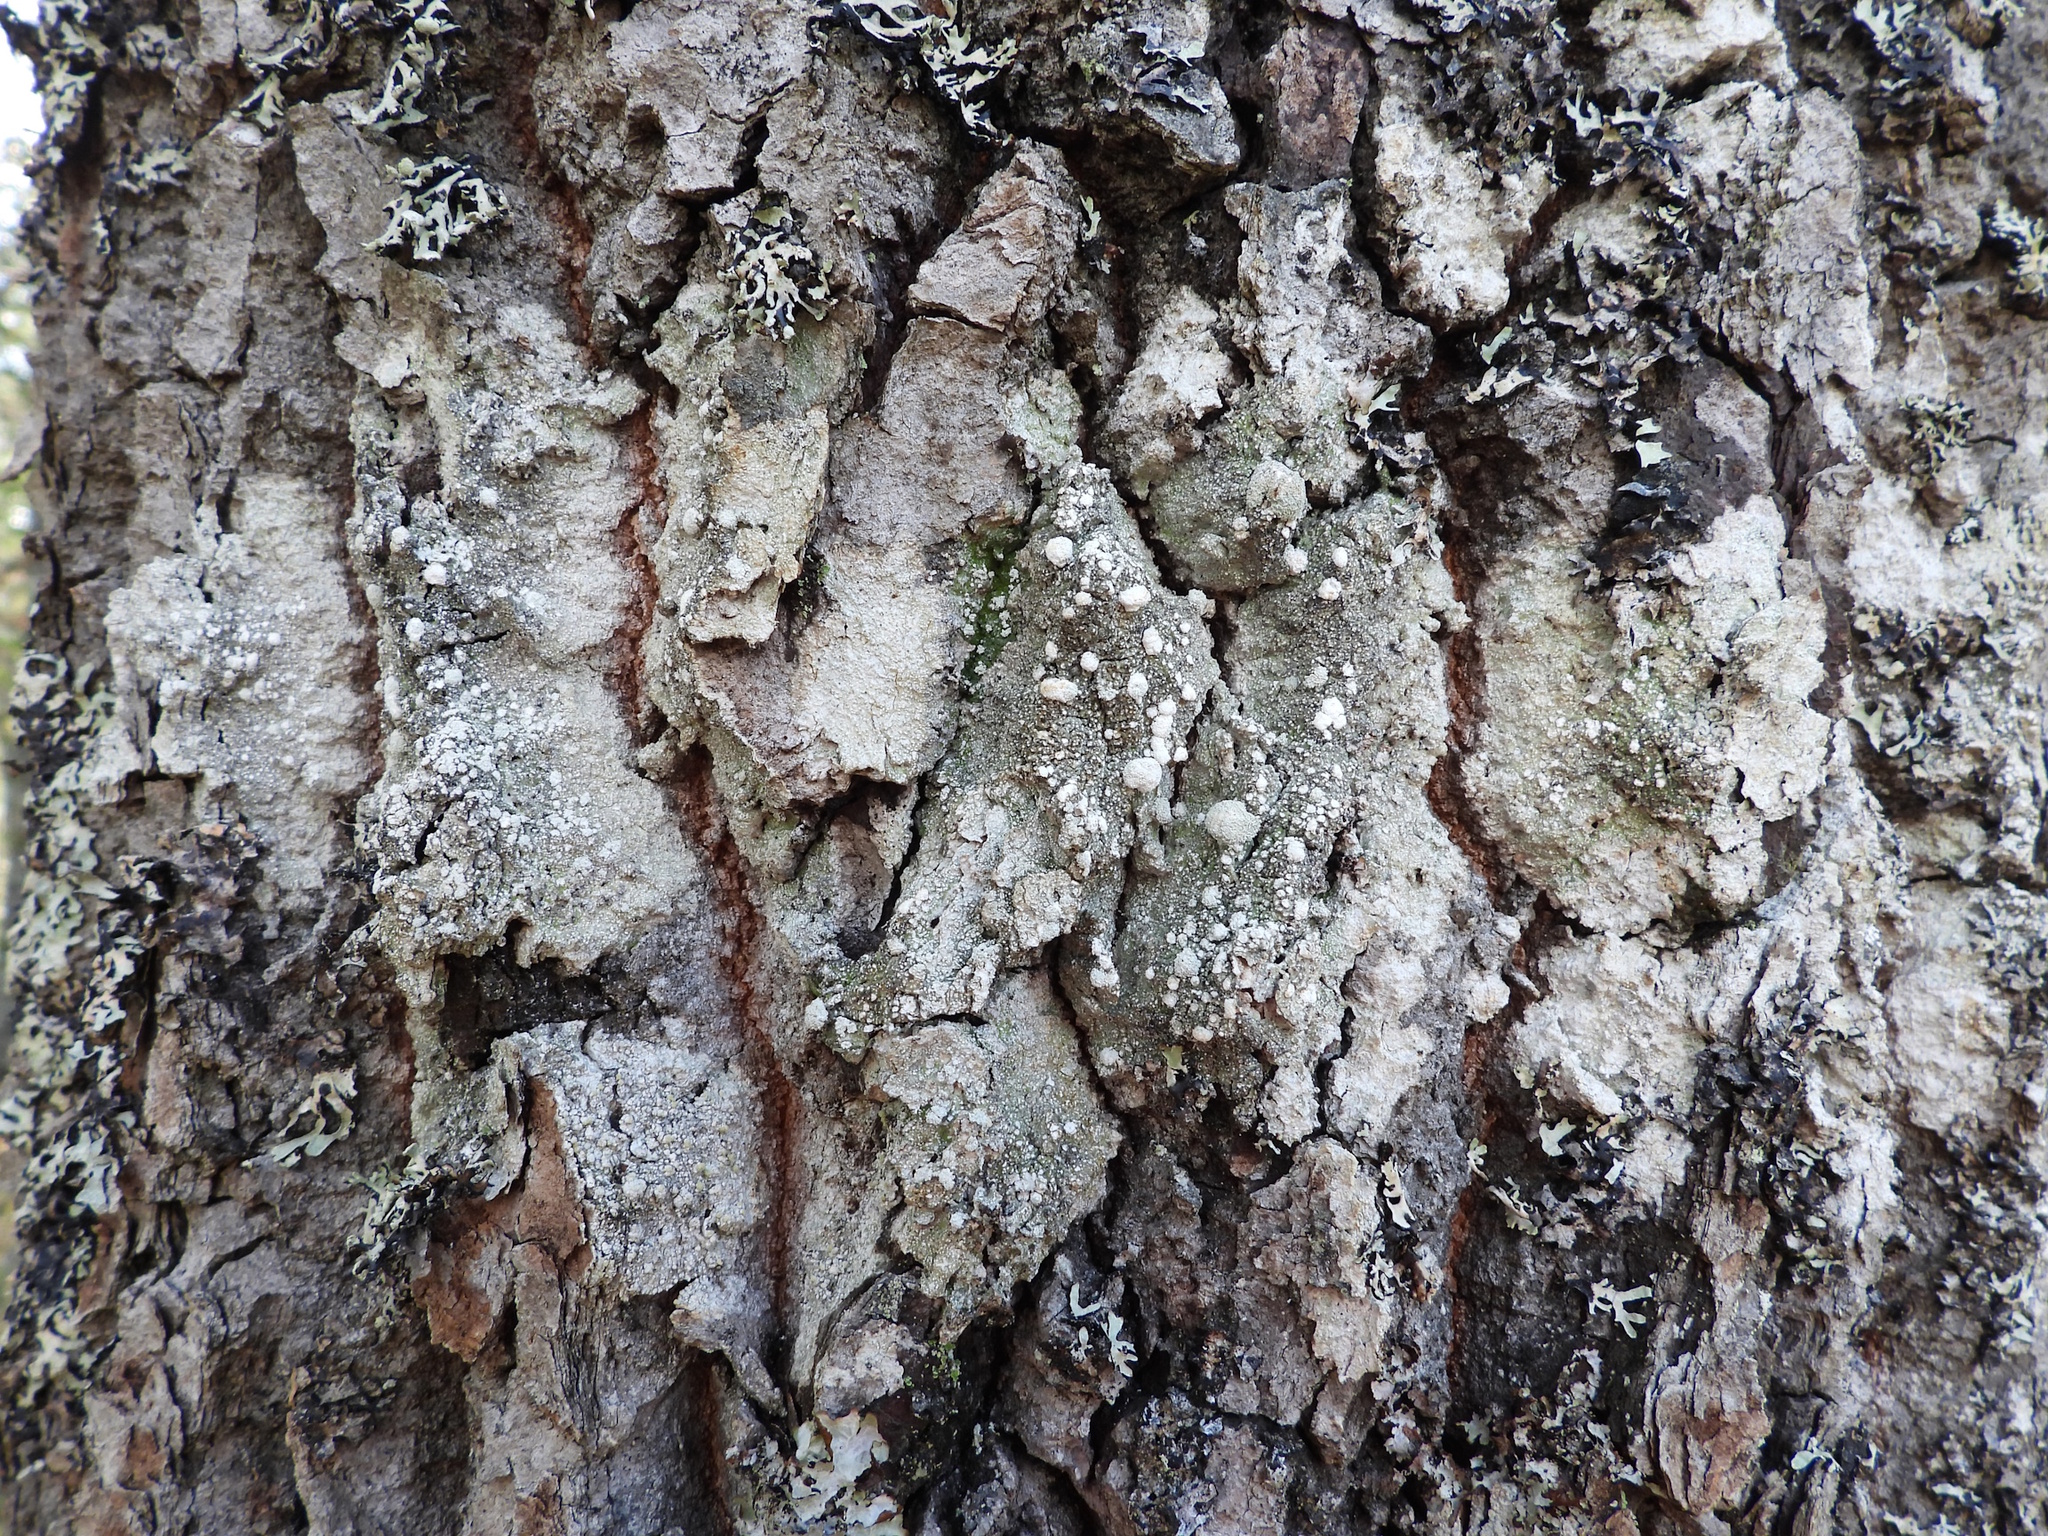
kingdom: Fungi
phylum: Ascomycota
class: Lecanoromycetes
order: Pertusariales
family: Pertusariaceae
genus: Lepra
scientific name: Lepra amara
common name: Bitter wart lichen
